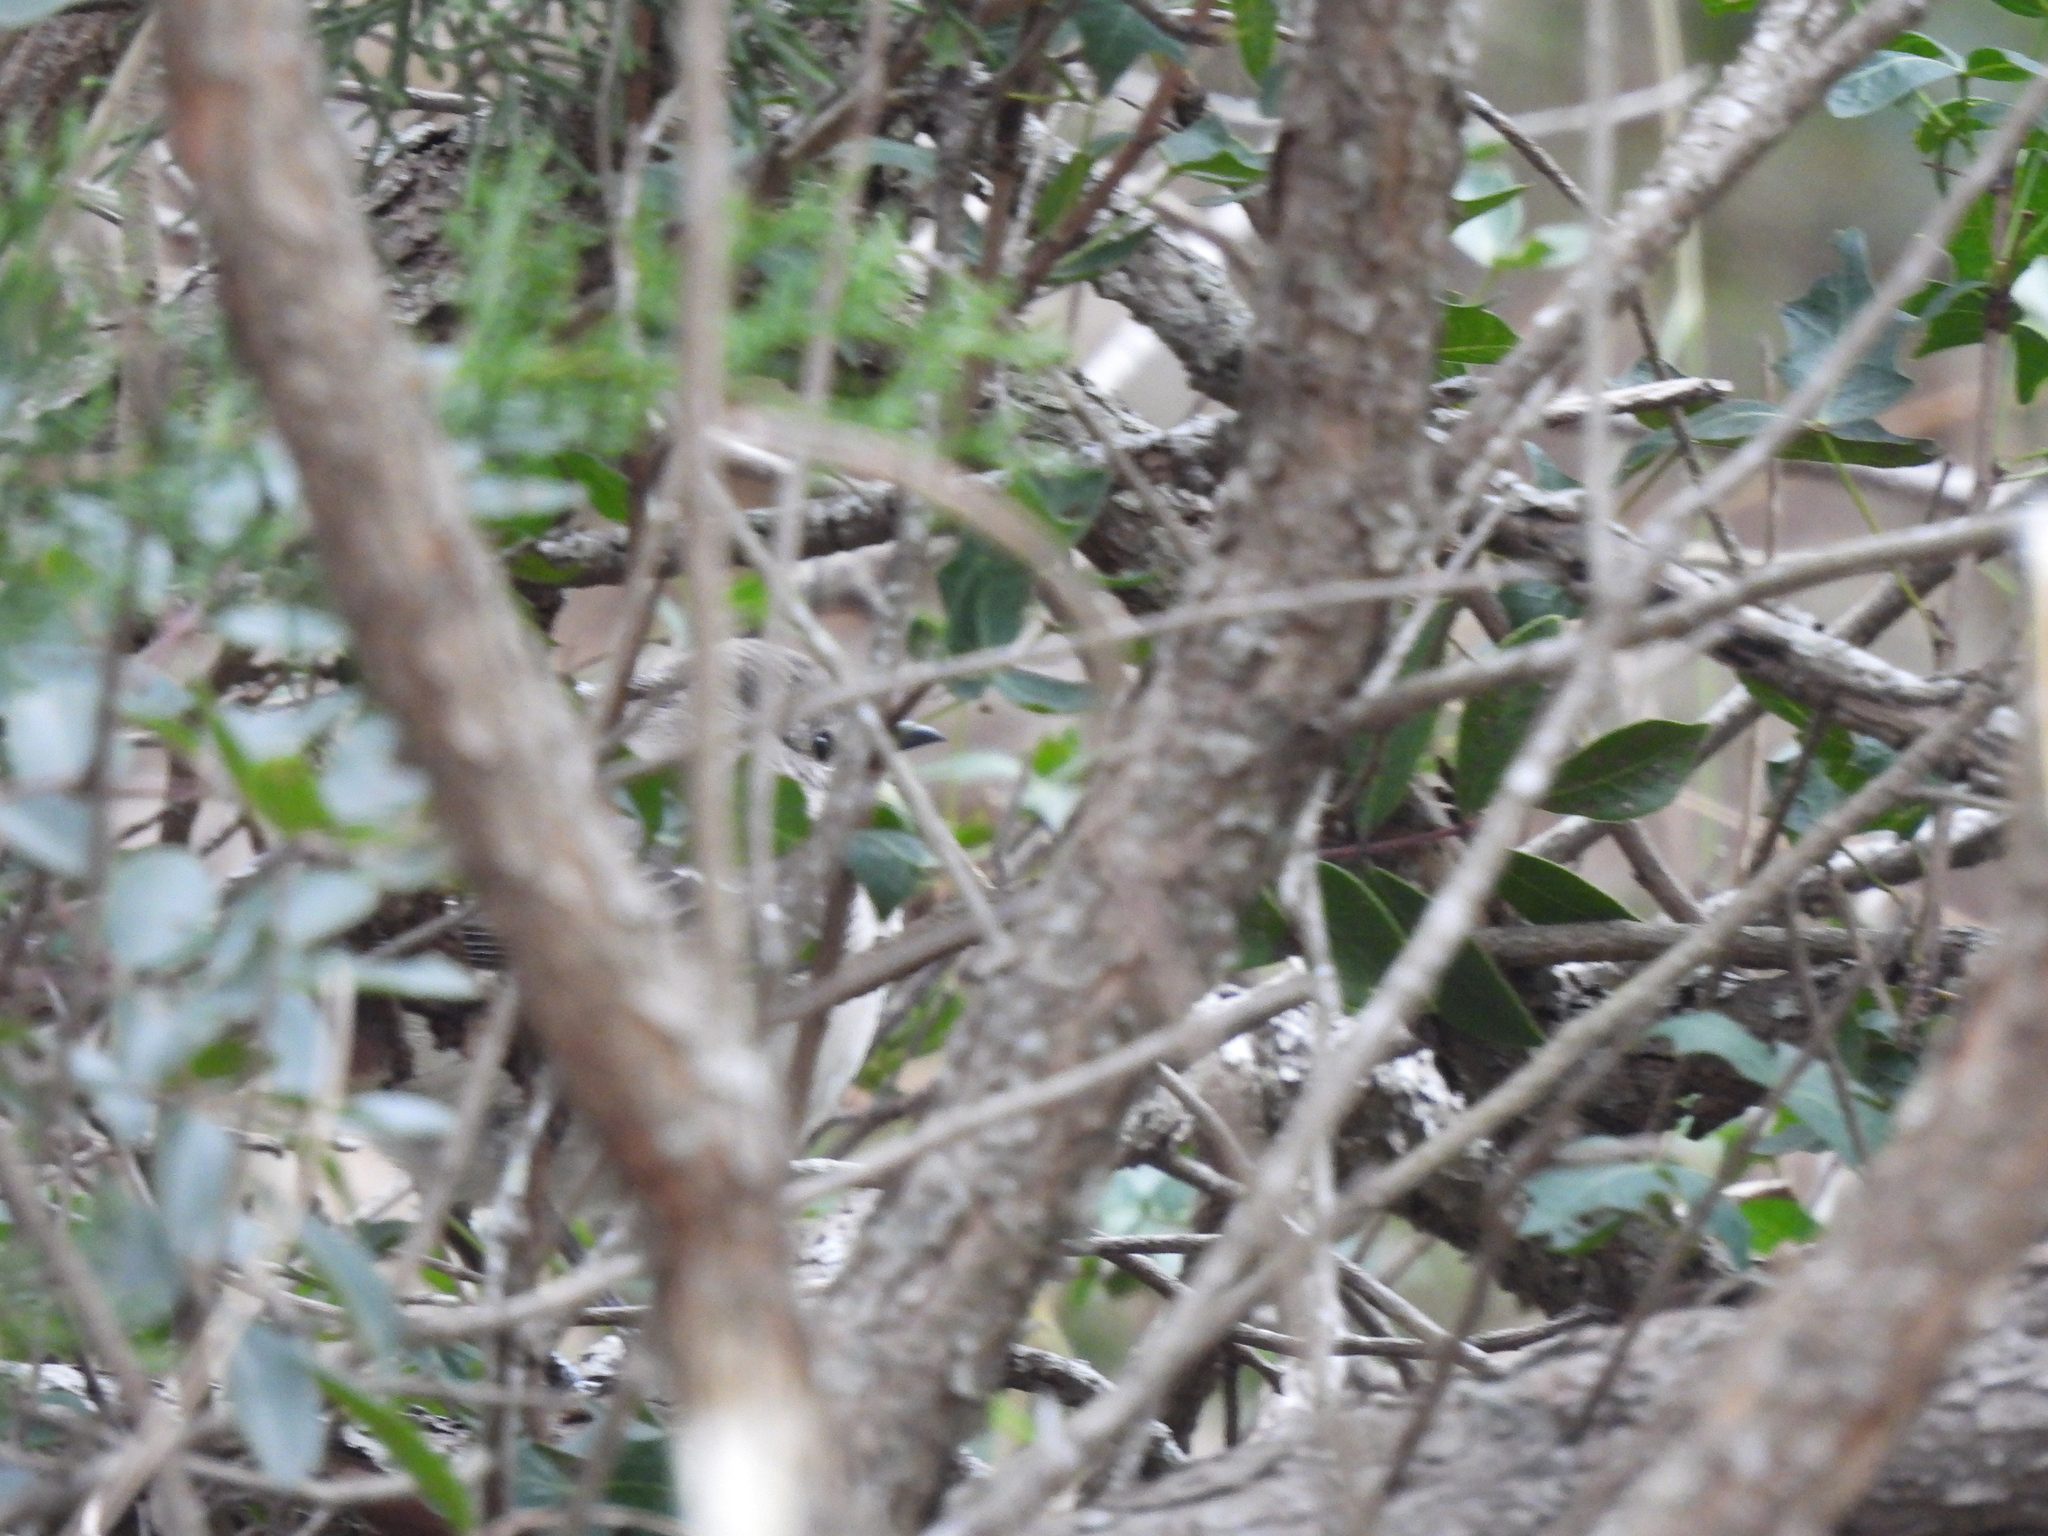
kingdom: Animalia
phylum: Chordata
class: Aves
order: Passeriformes
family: Mimidae
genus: Mimus
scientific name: Mimus polyglottos
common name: Northern mockingbird
